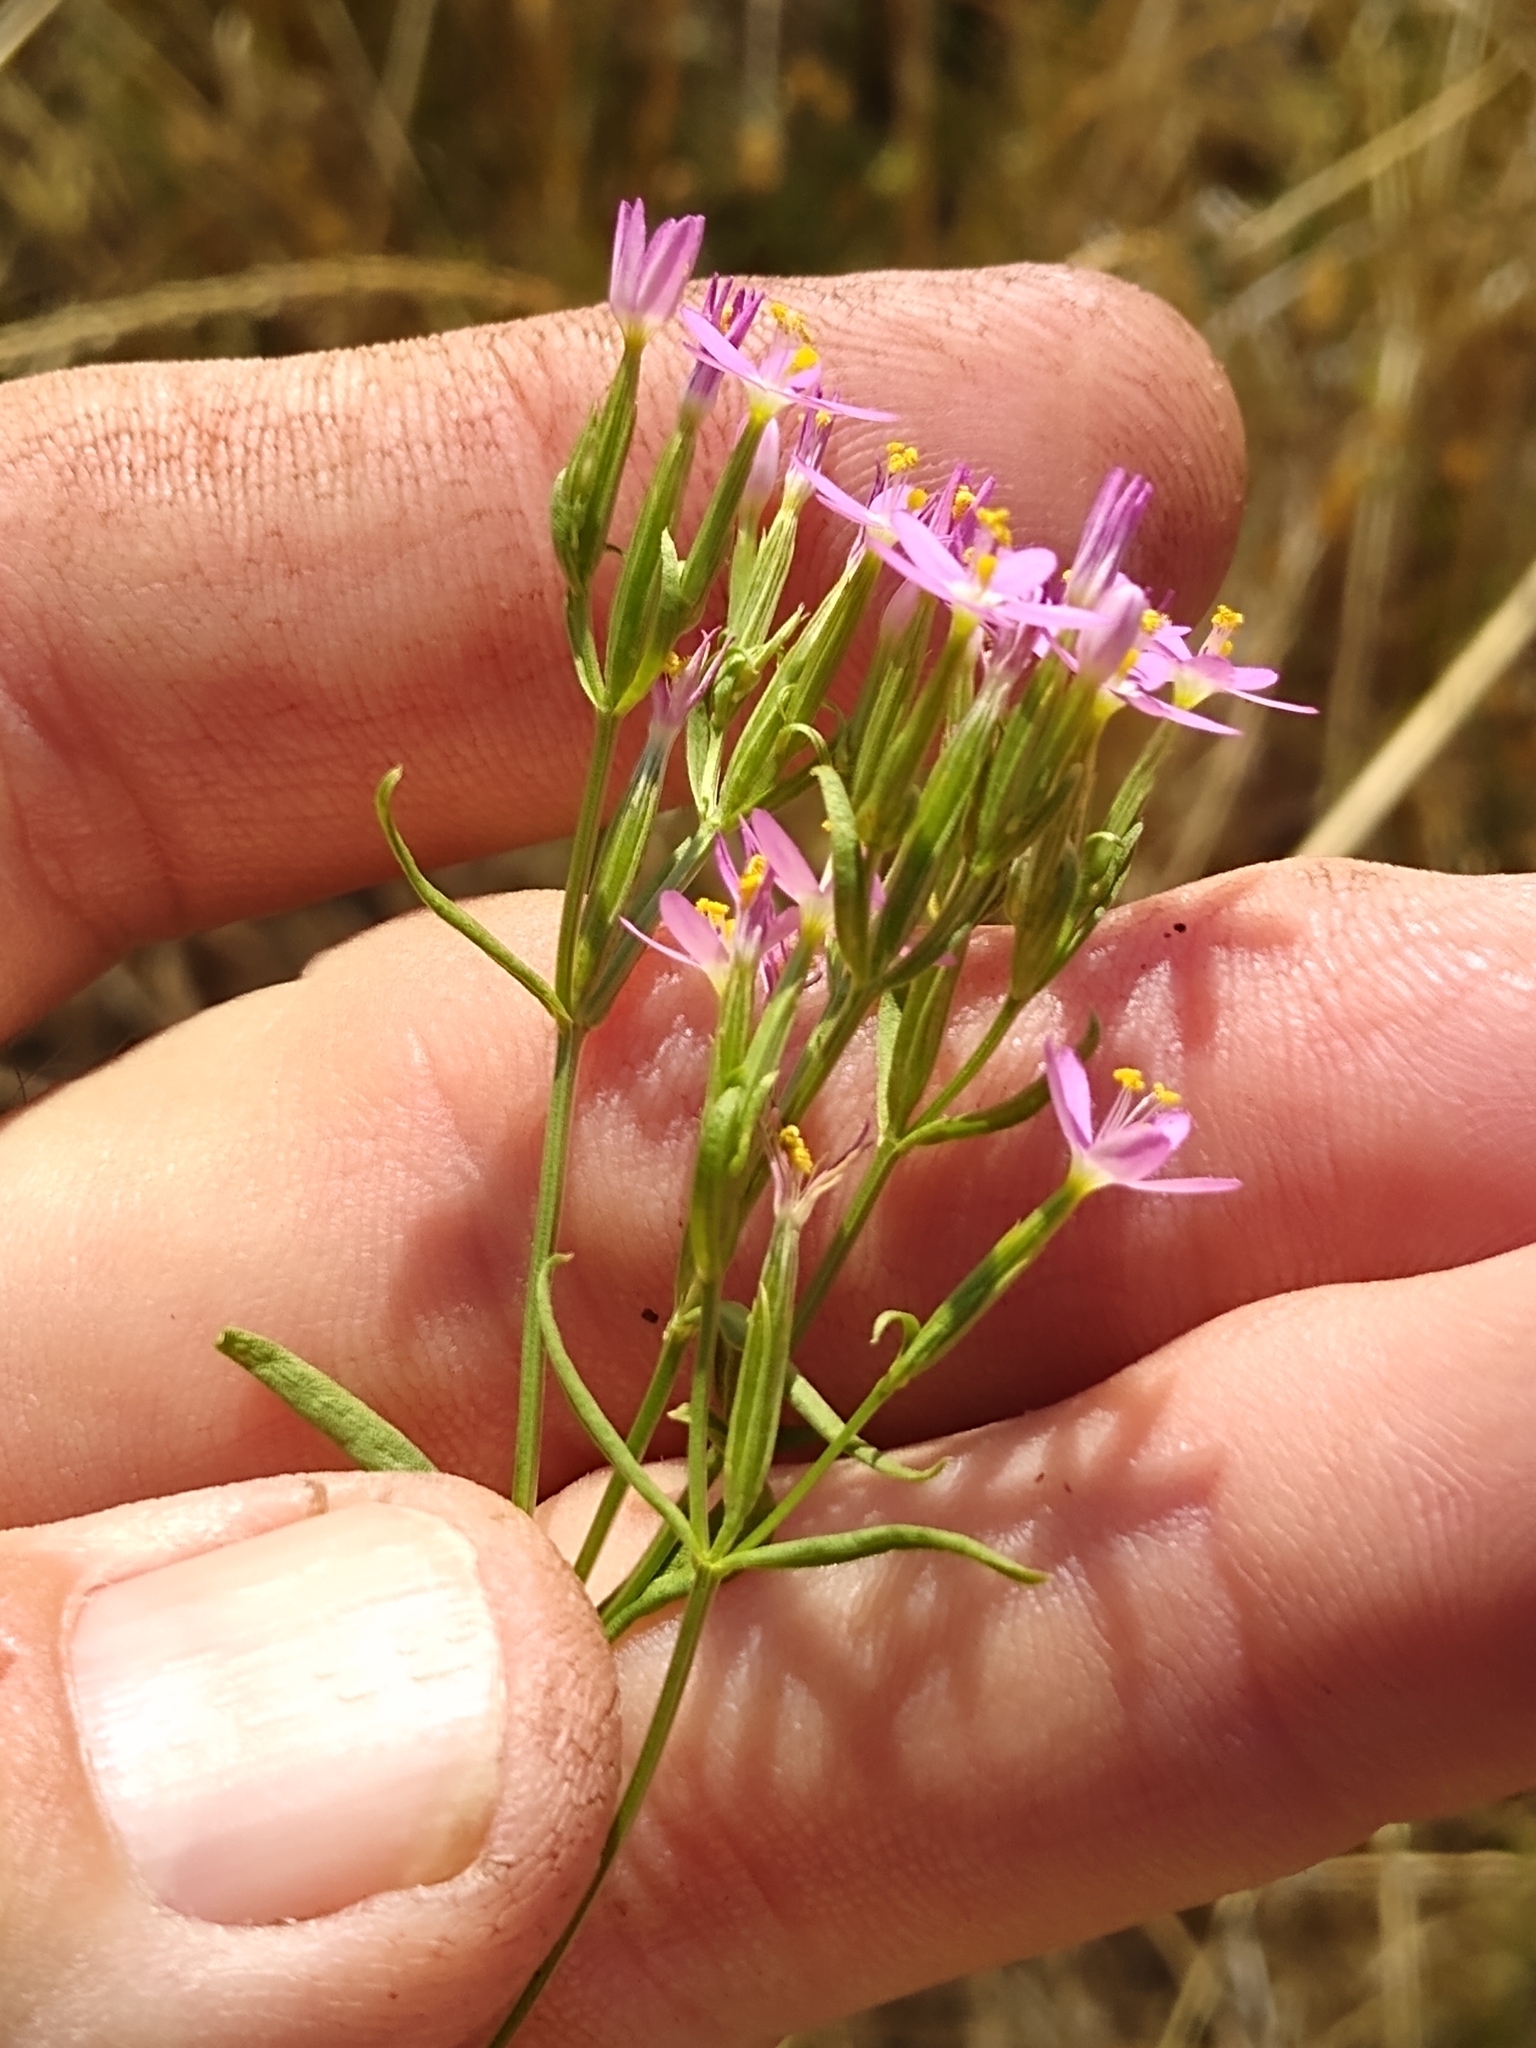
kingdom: Plantae
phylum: Tracheophyta
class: Magnoliopsida
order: Gentianales
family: Gentianaceae
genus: Zeltnera
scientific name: Zeltnera muhlenbergii
